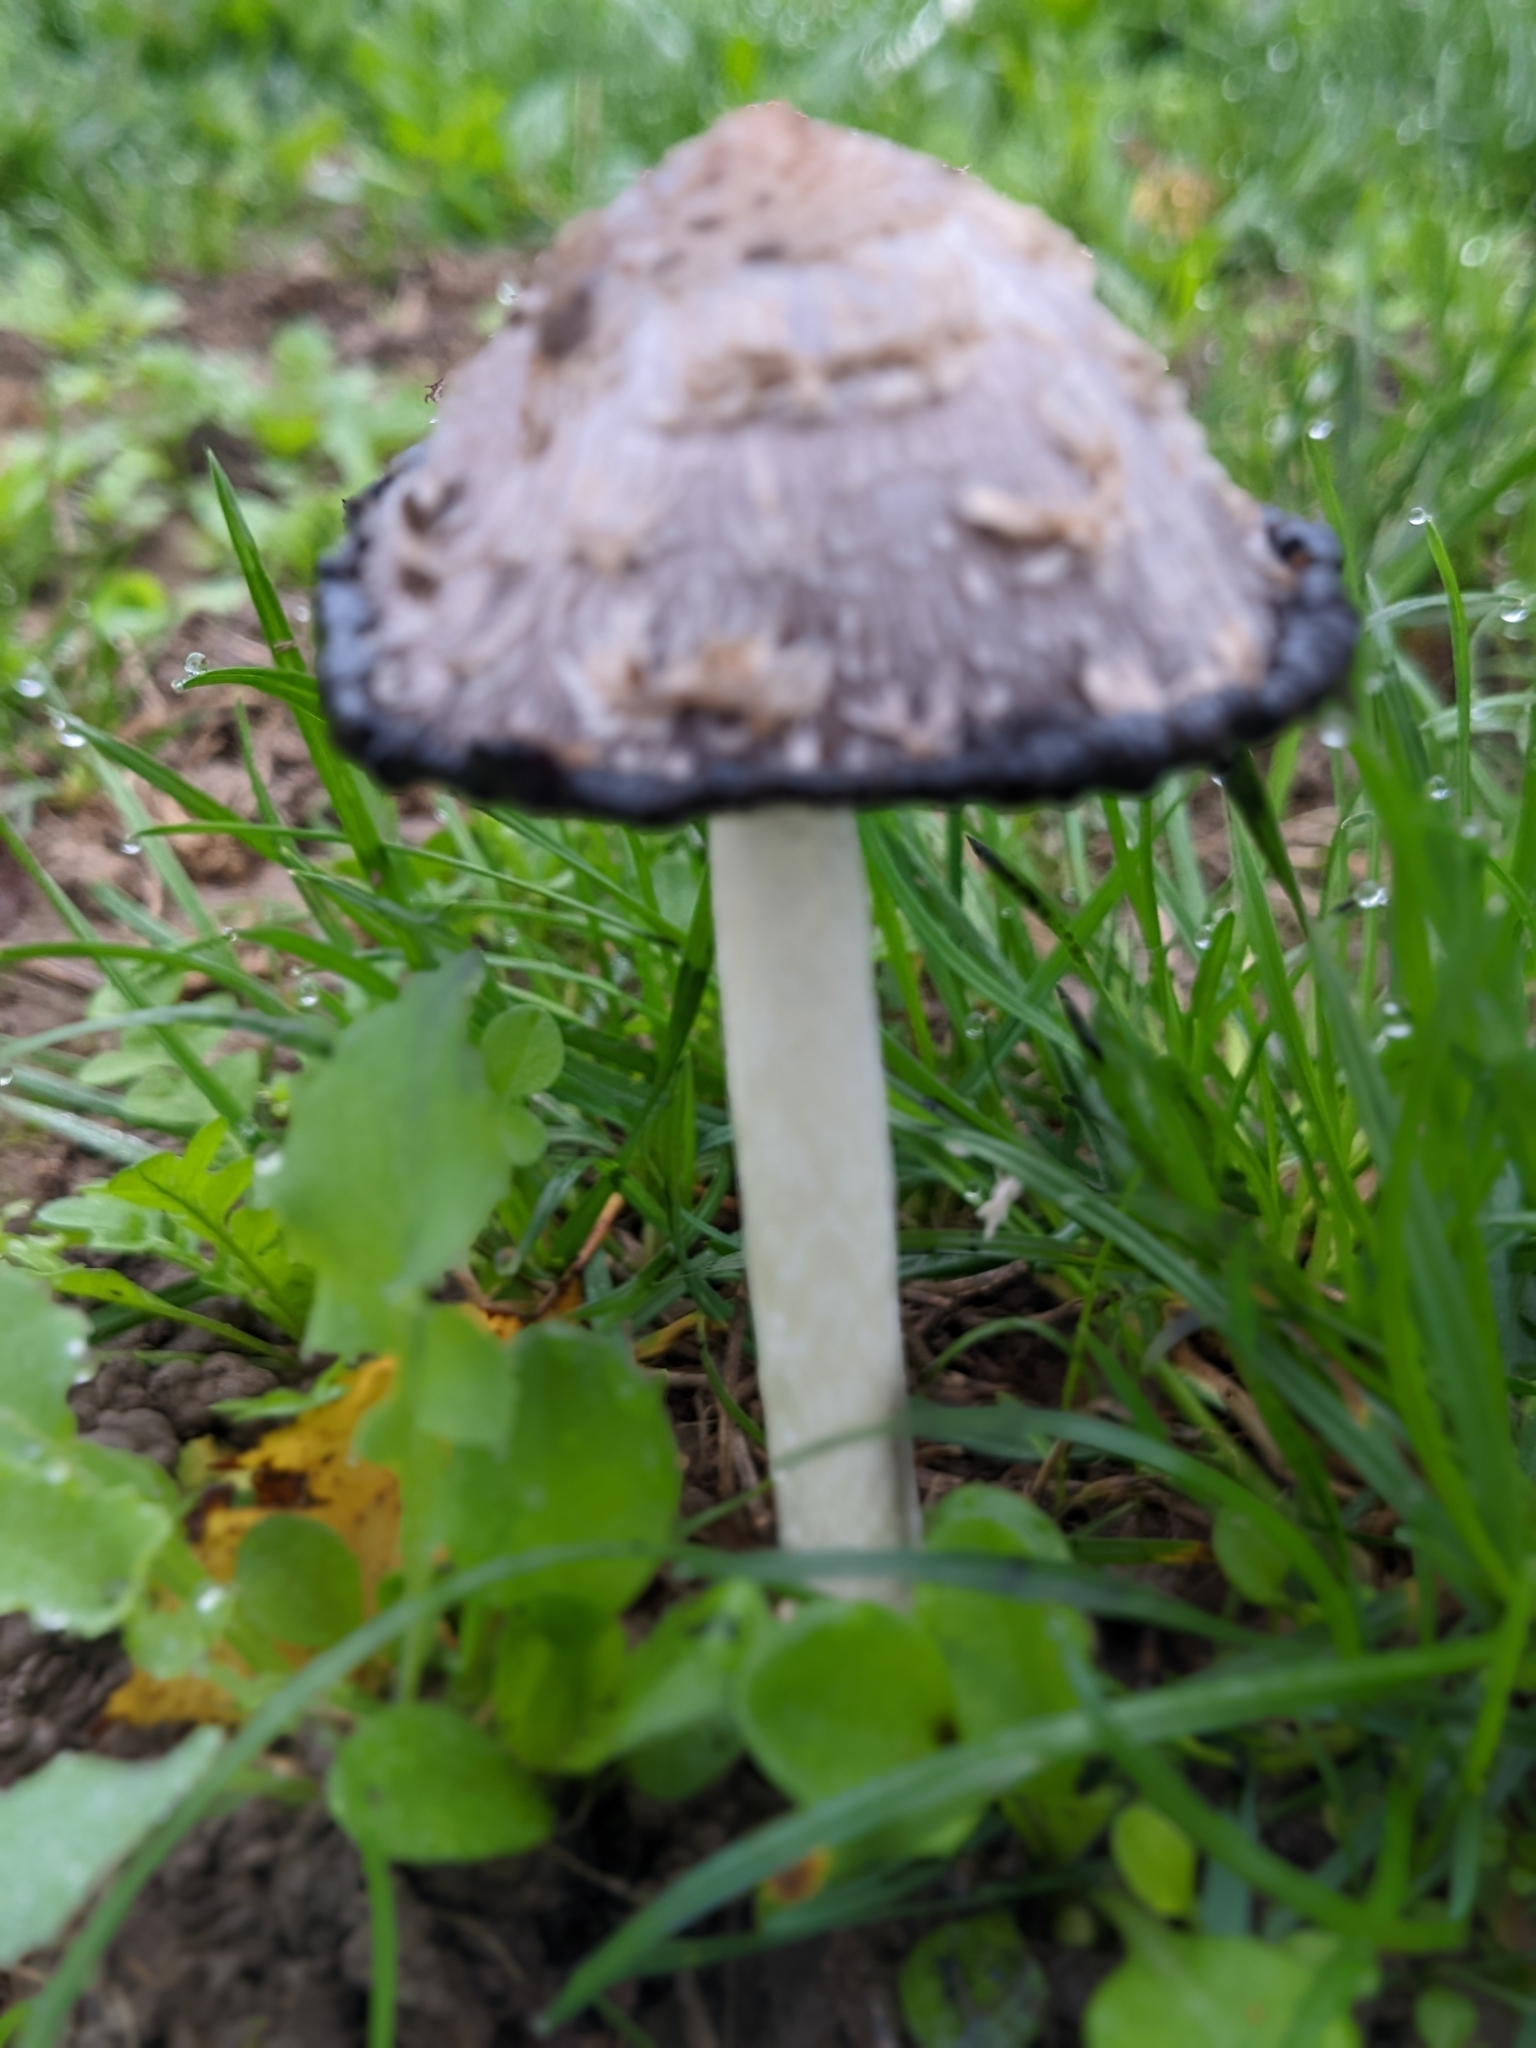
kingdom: Fungi
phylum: Basidiomycota
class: Agaricomycetes
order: Agaricales
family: Agaricaceae
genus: Coprinus
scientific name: Coprinus comatus
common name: Lawyer's wig
